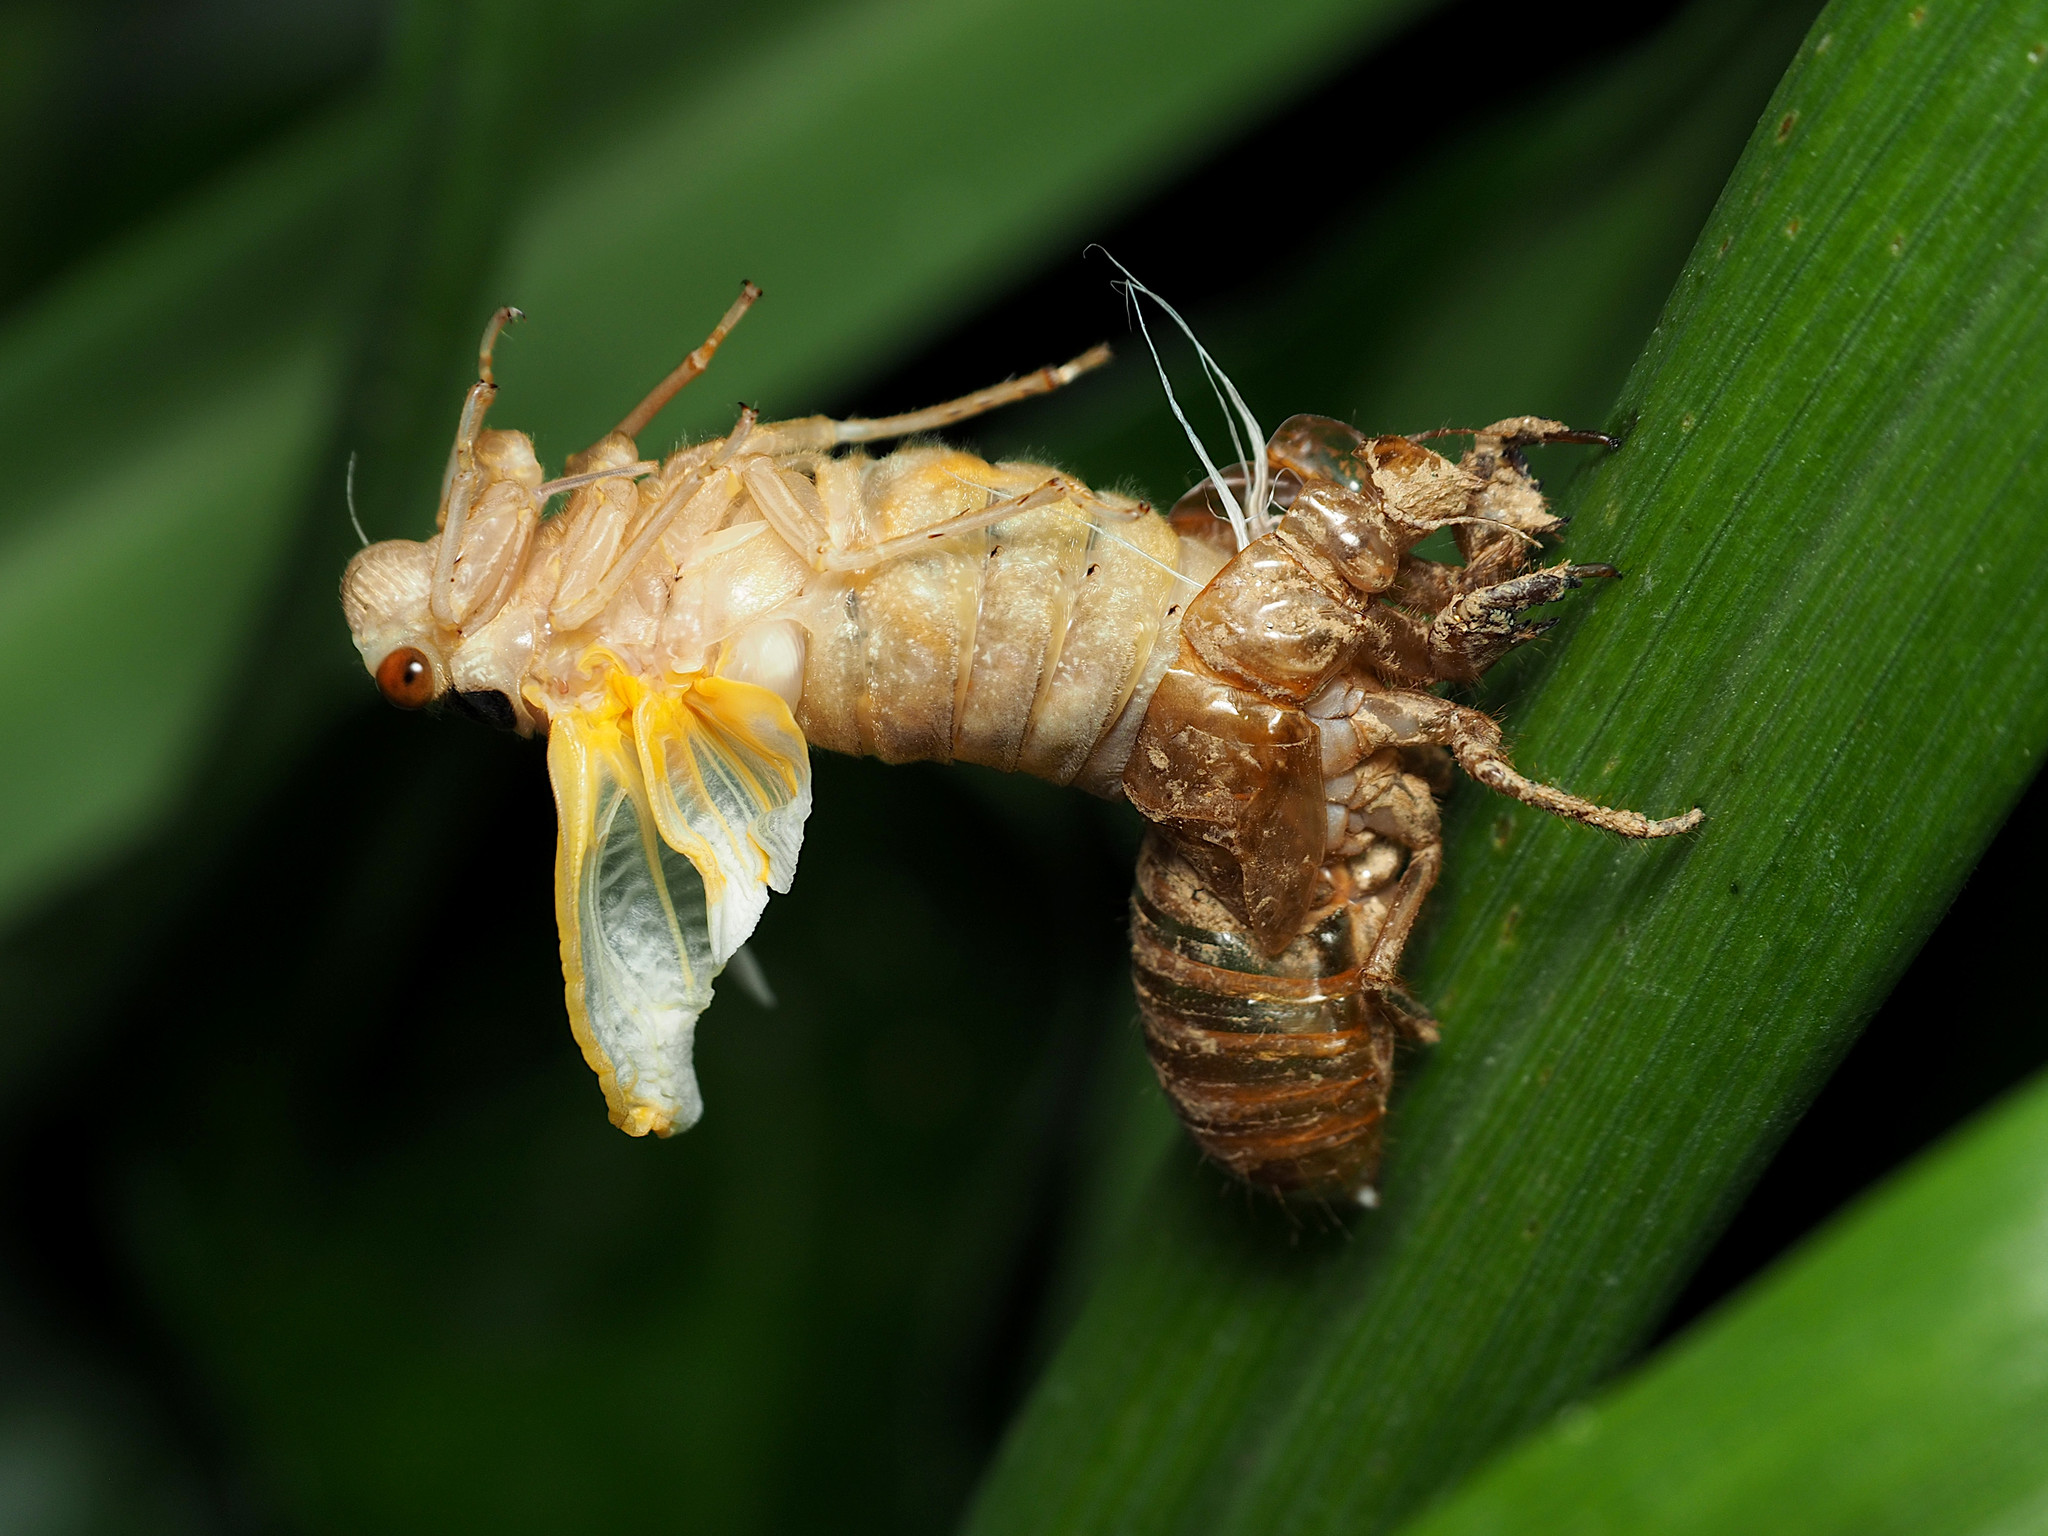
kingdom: Animalia
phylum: Arthropoda
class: Insecta
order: Hemiptera
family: Cicadidae
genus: Magicicada
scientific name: Magicicada
